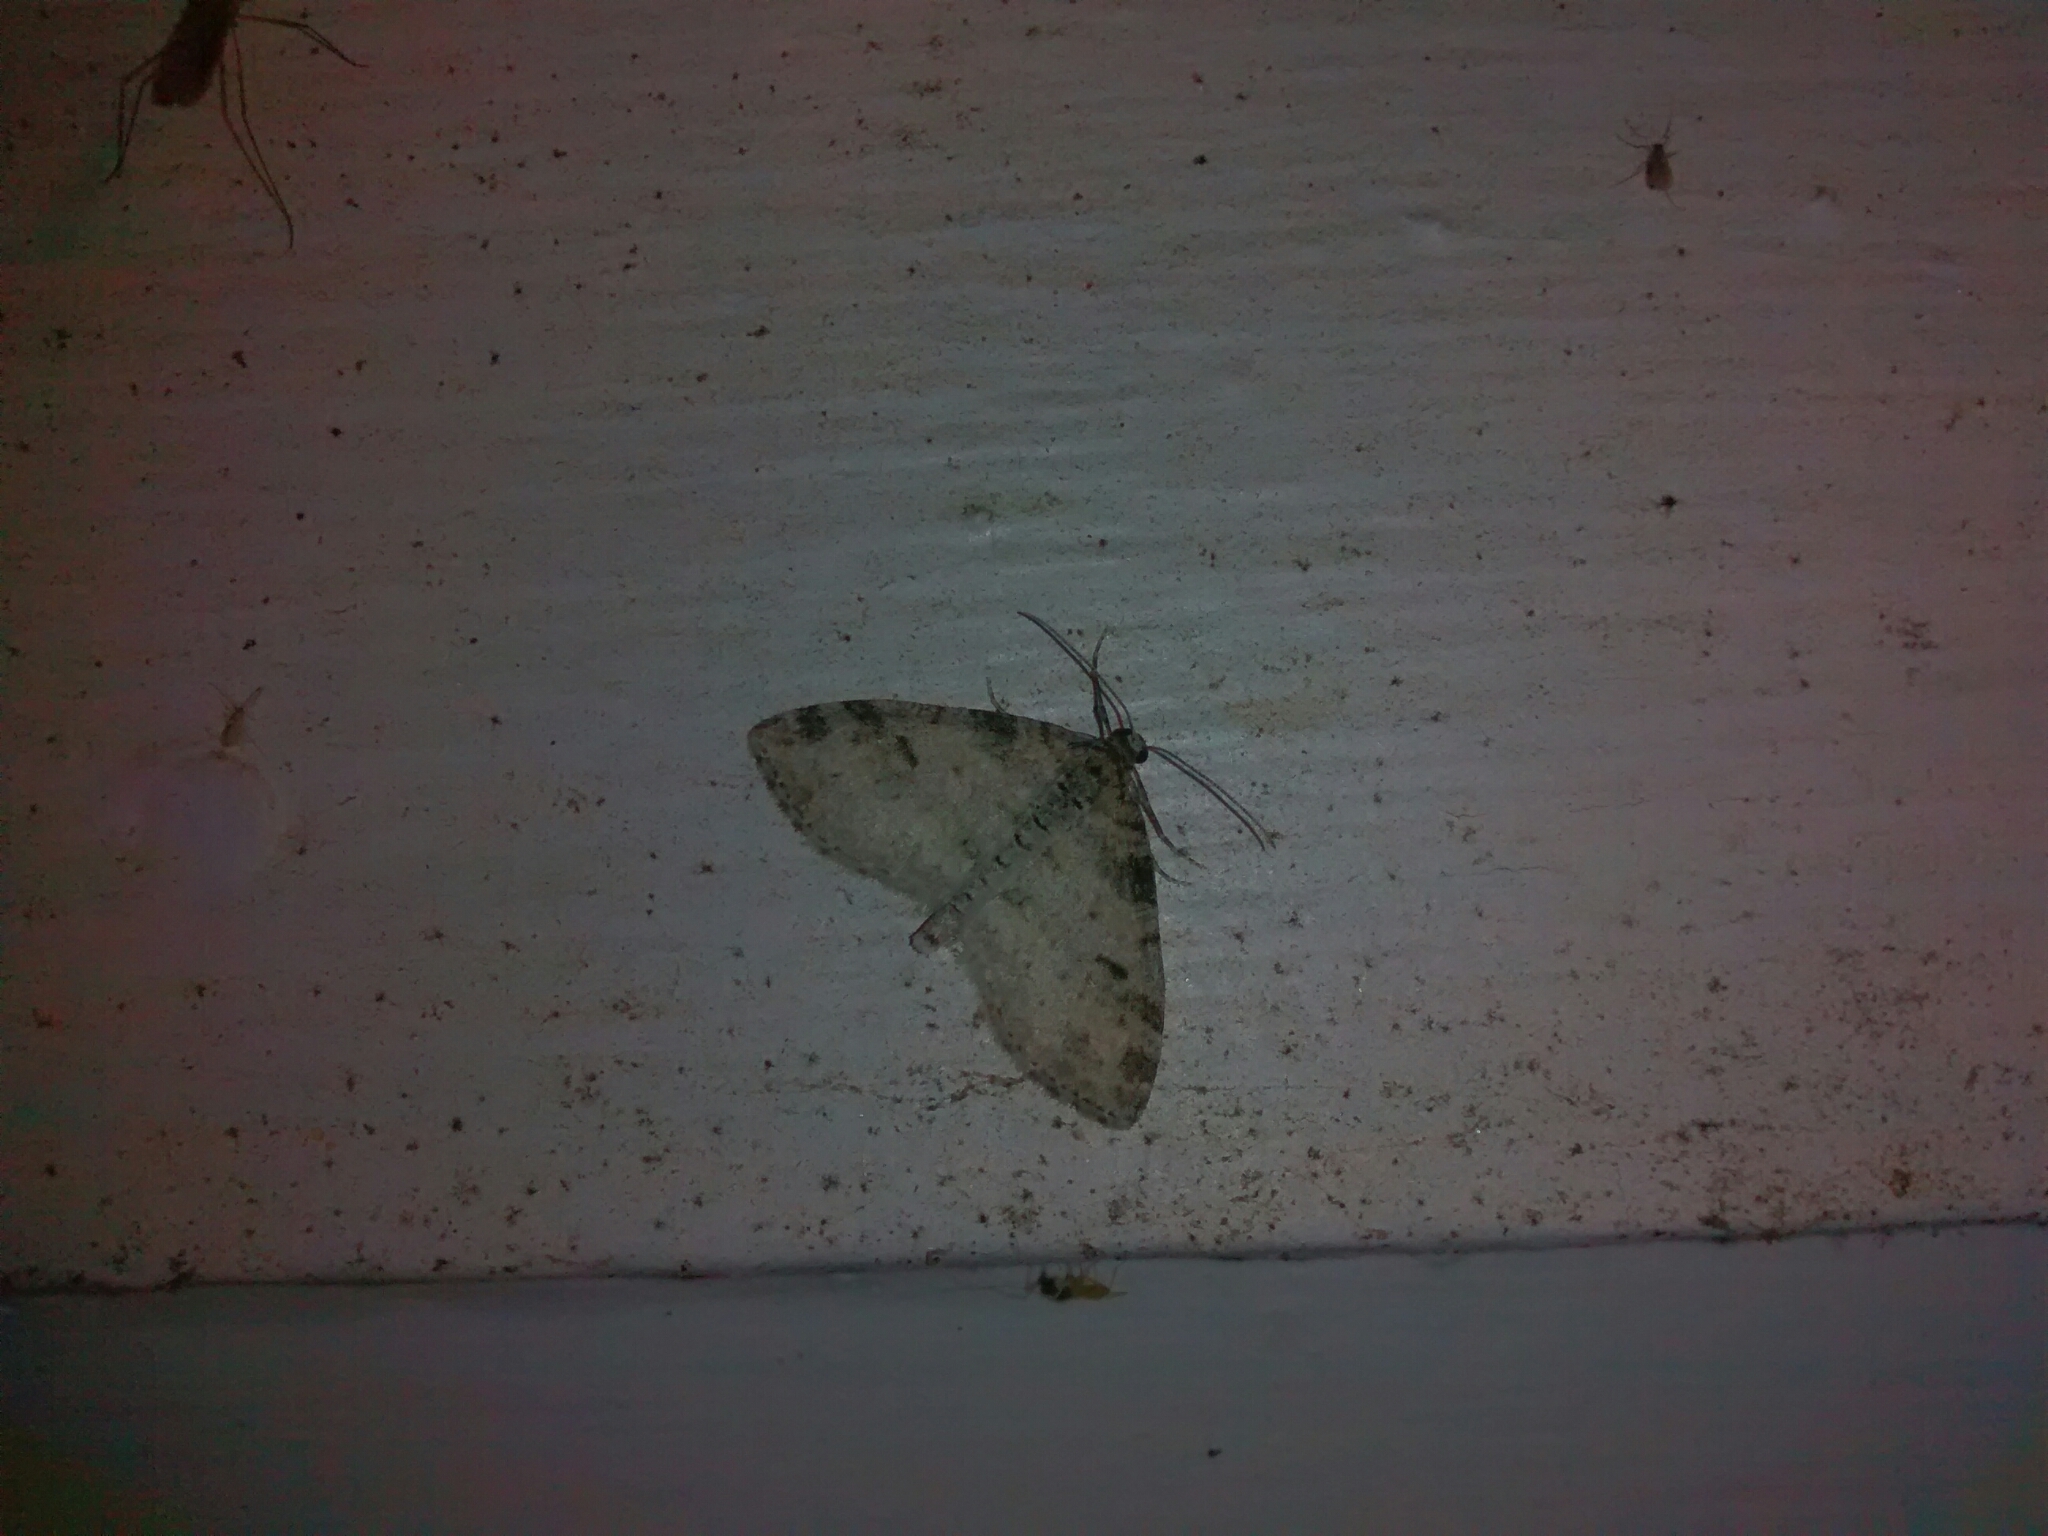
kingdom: Animalia
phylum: Arthropoda
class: Insecta
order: Lepidoptera
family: Geometridae
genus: Lobophora
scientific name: Lobophora nivigerata
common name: Powdered bigwing
